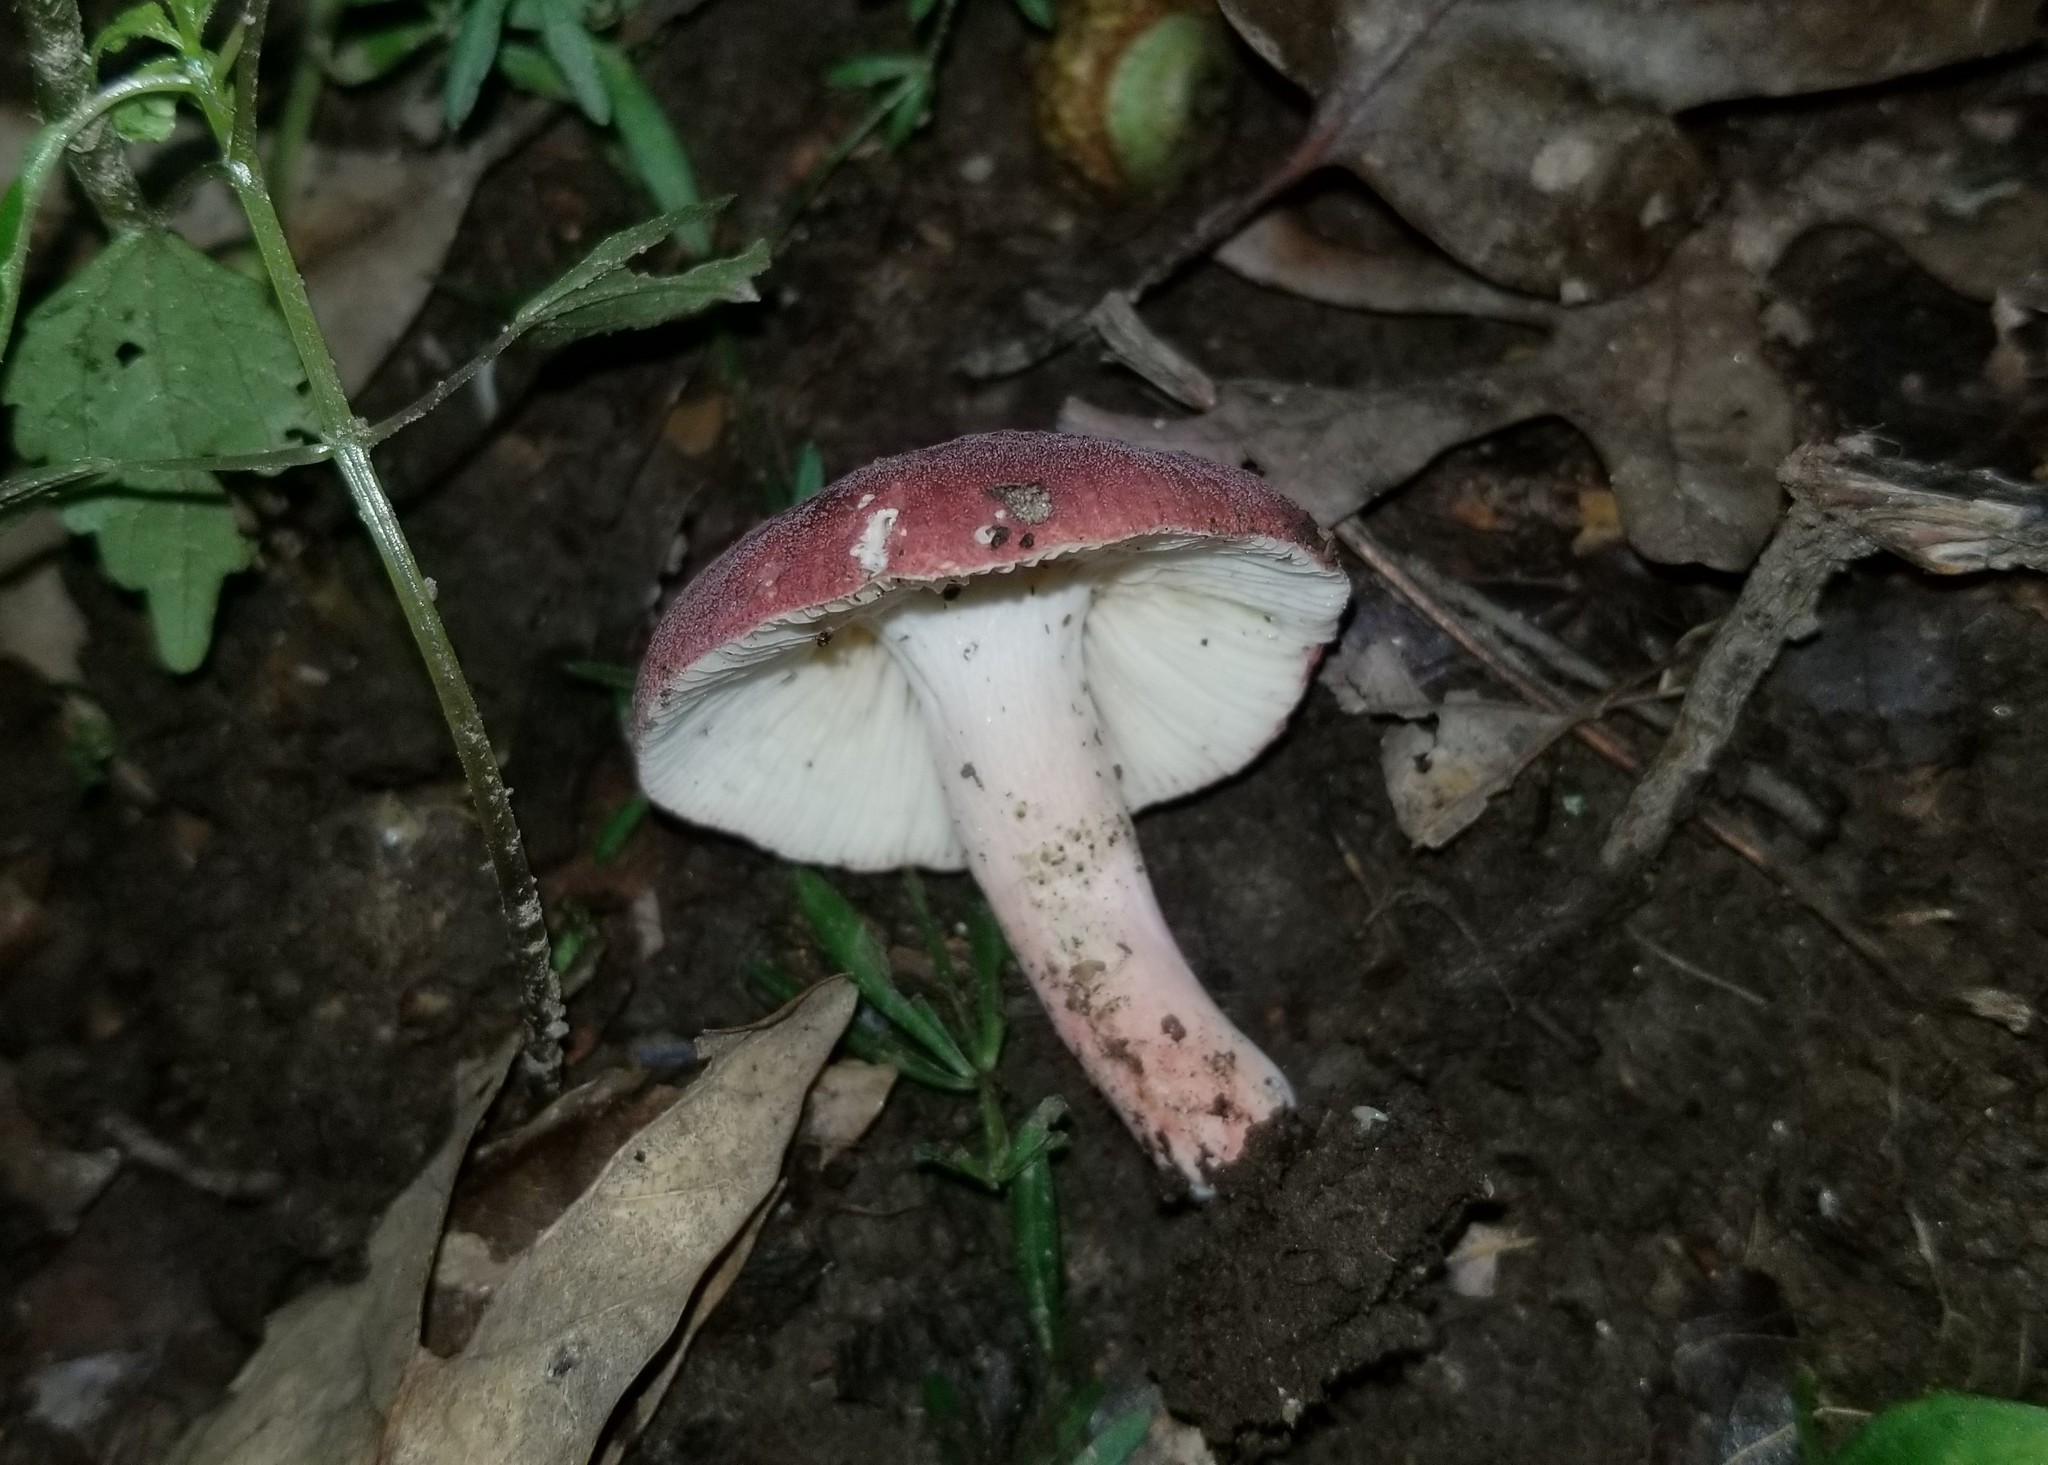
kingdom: Fungi
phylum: Basidiomycota
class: Agaricomycetes
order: Russulales
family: Russulaceae
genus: Russula
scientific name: Russula mariae
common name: Purple-bloom russula
